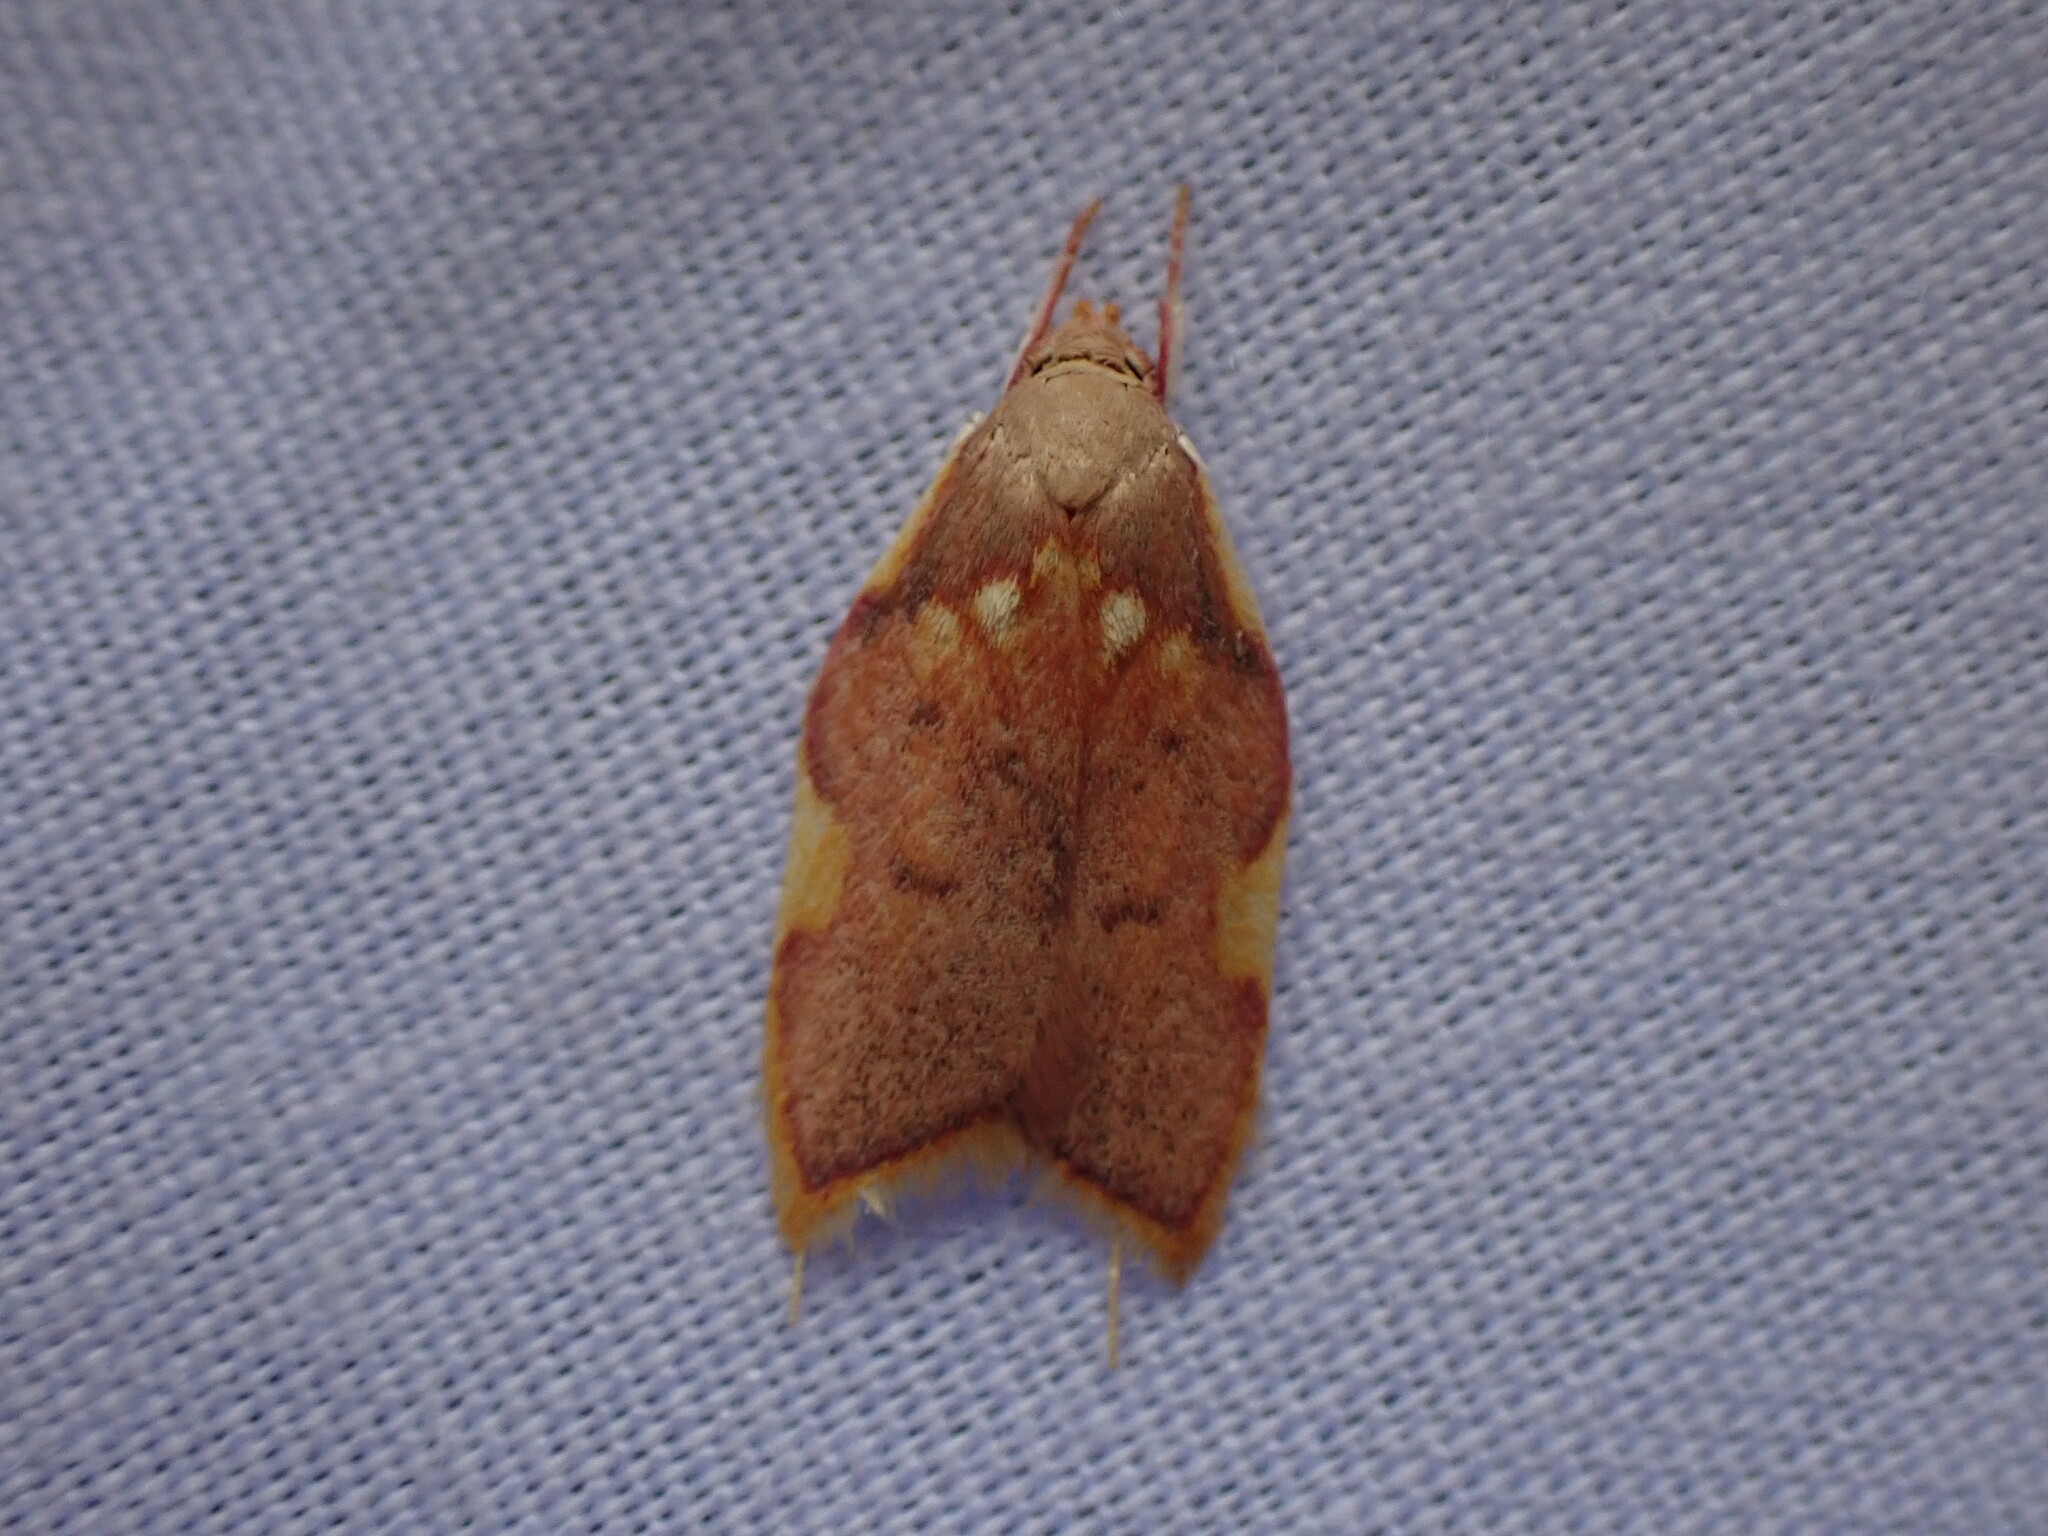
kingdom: Animalia
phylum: Arthropoda
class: Insecta
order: Lepidoptera
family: Peleopodidae
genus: Carcina
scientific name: Carcina quercana
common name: Moth
